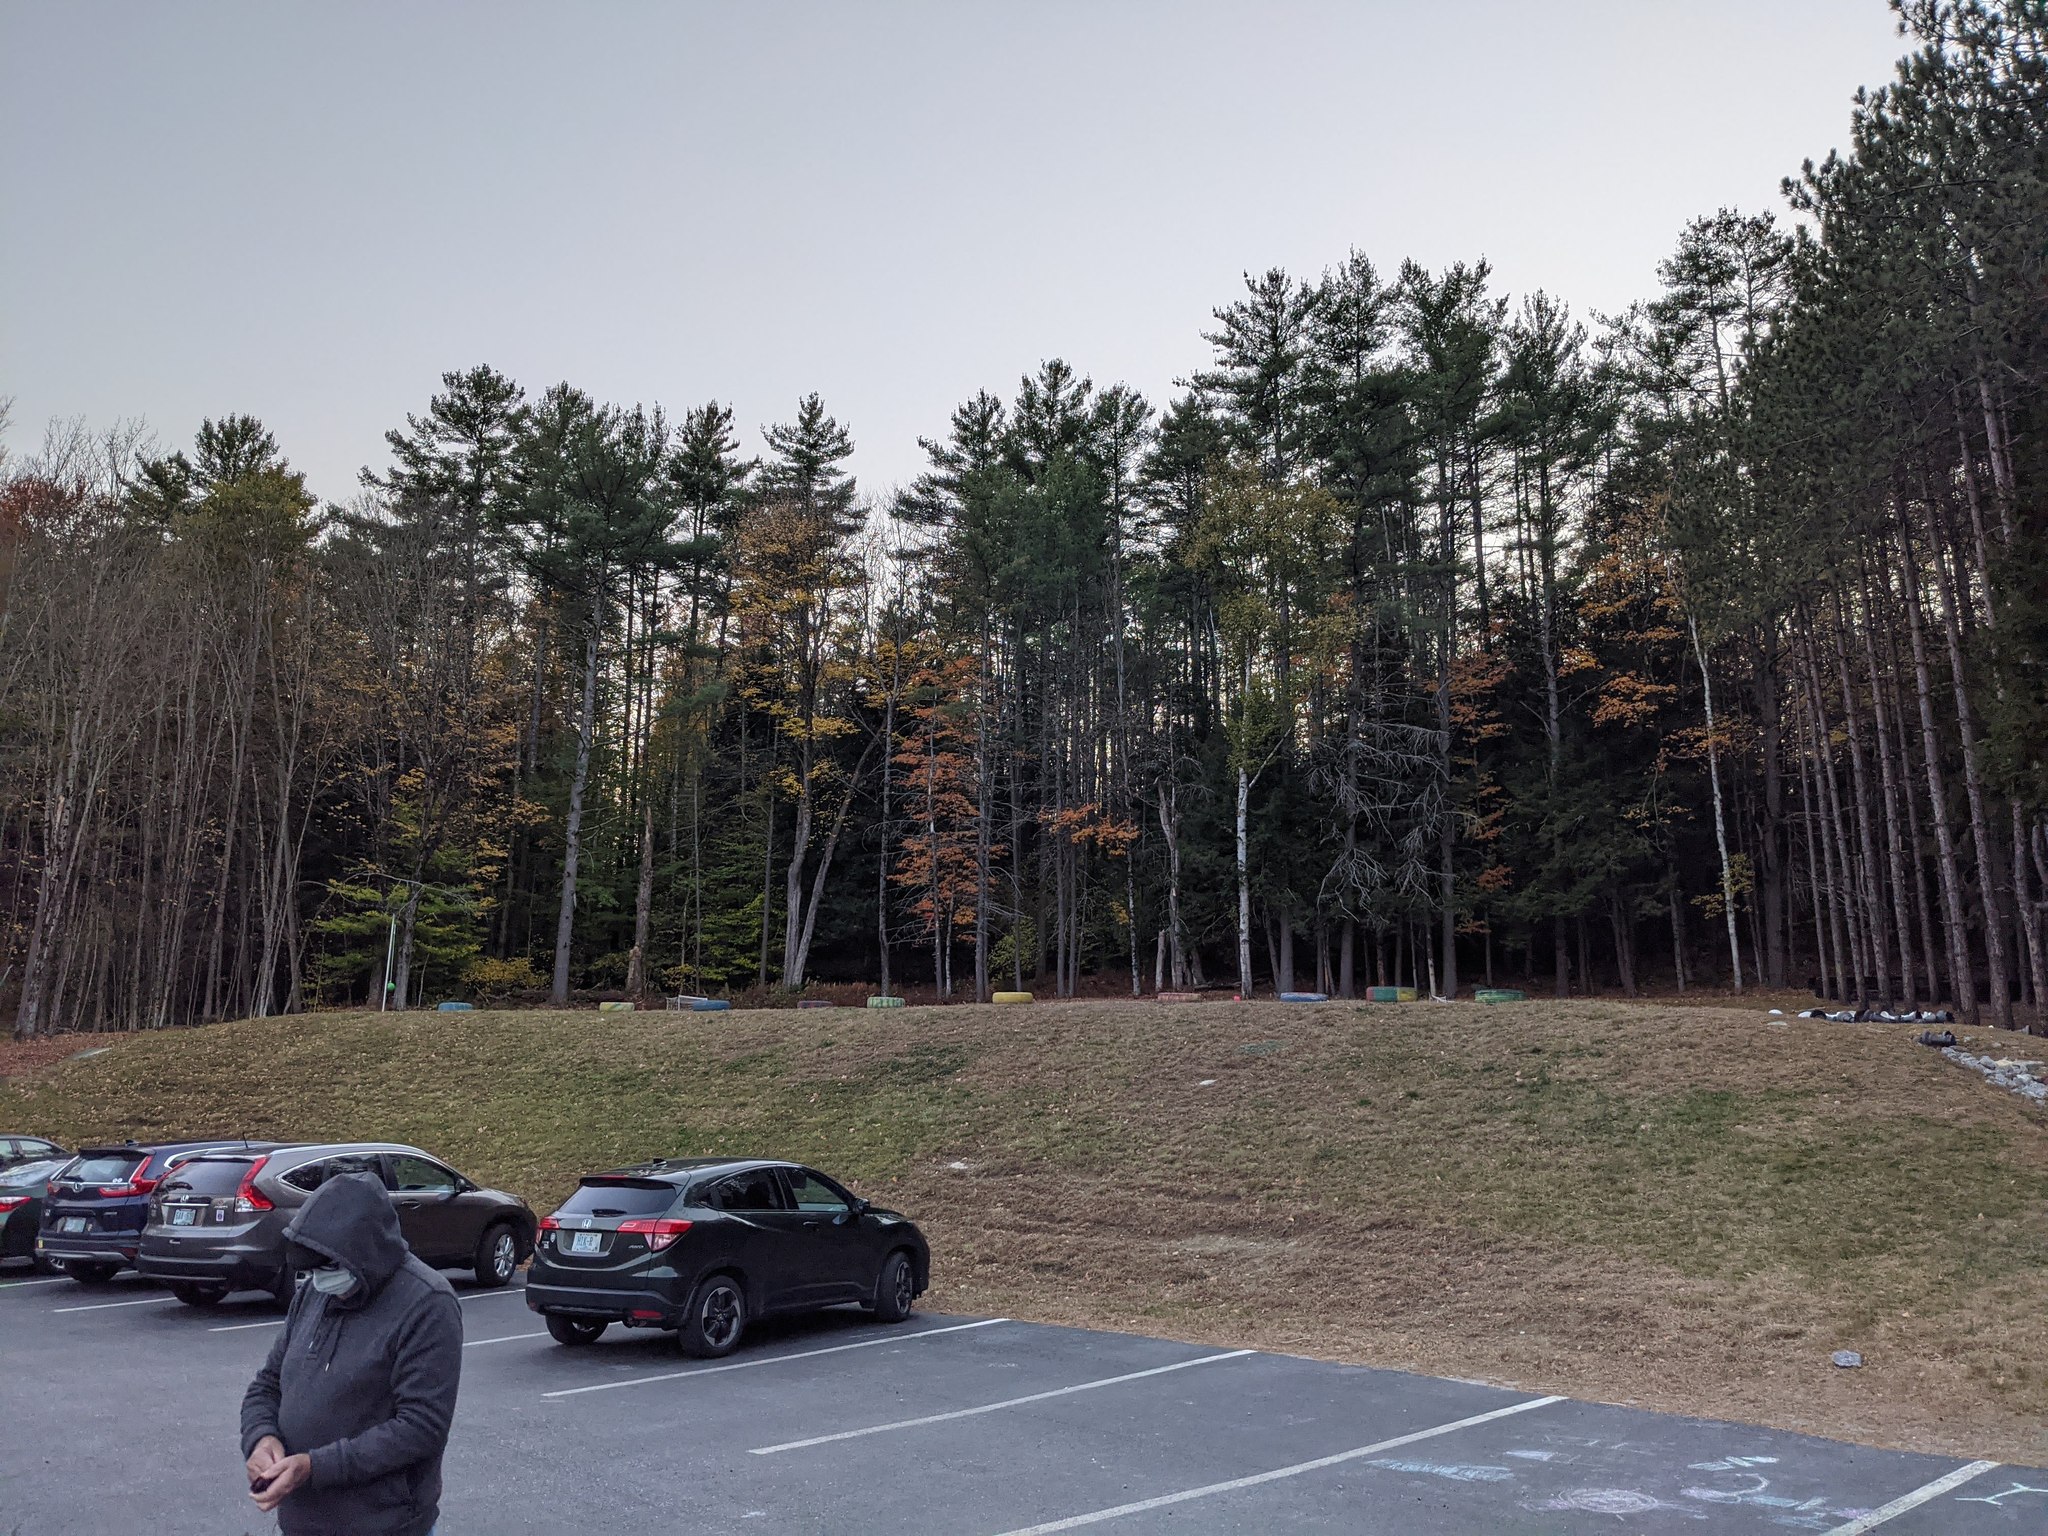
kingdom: Plantae
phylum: Tracheophyta
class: Pinopsida
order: Pinales
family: Pinaceae
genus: Pinus
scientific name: Pinus strobus
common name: Weymouth pine
